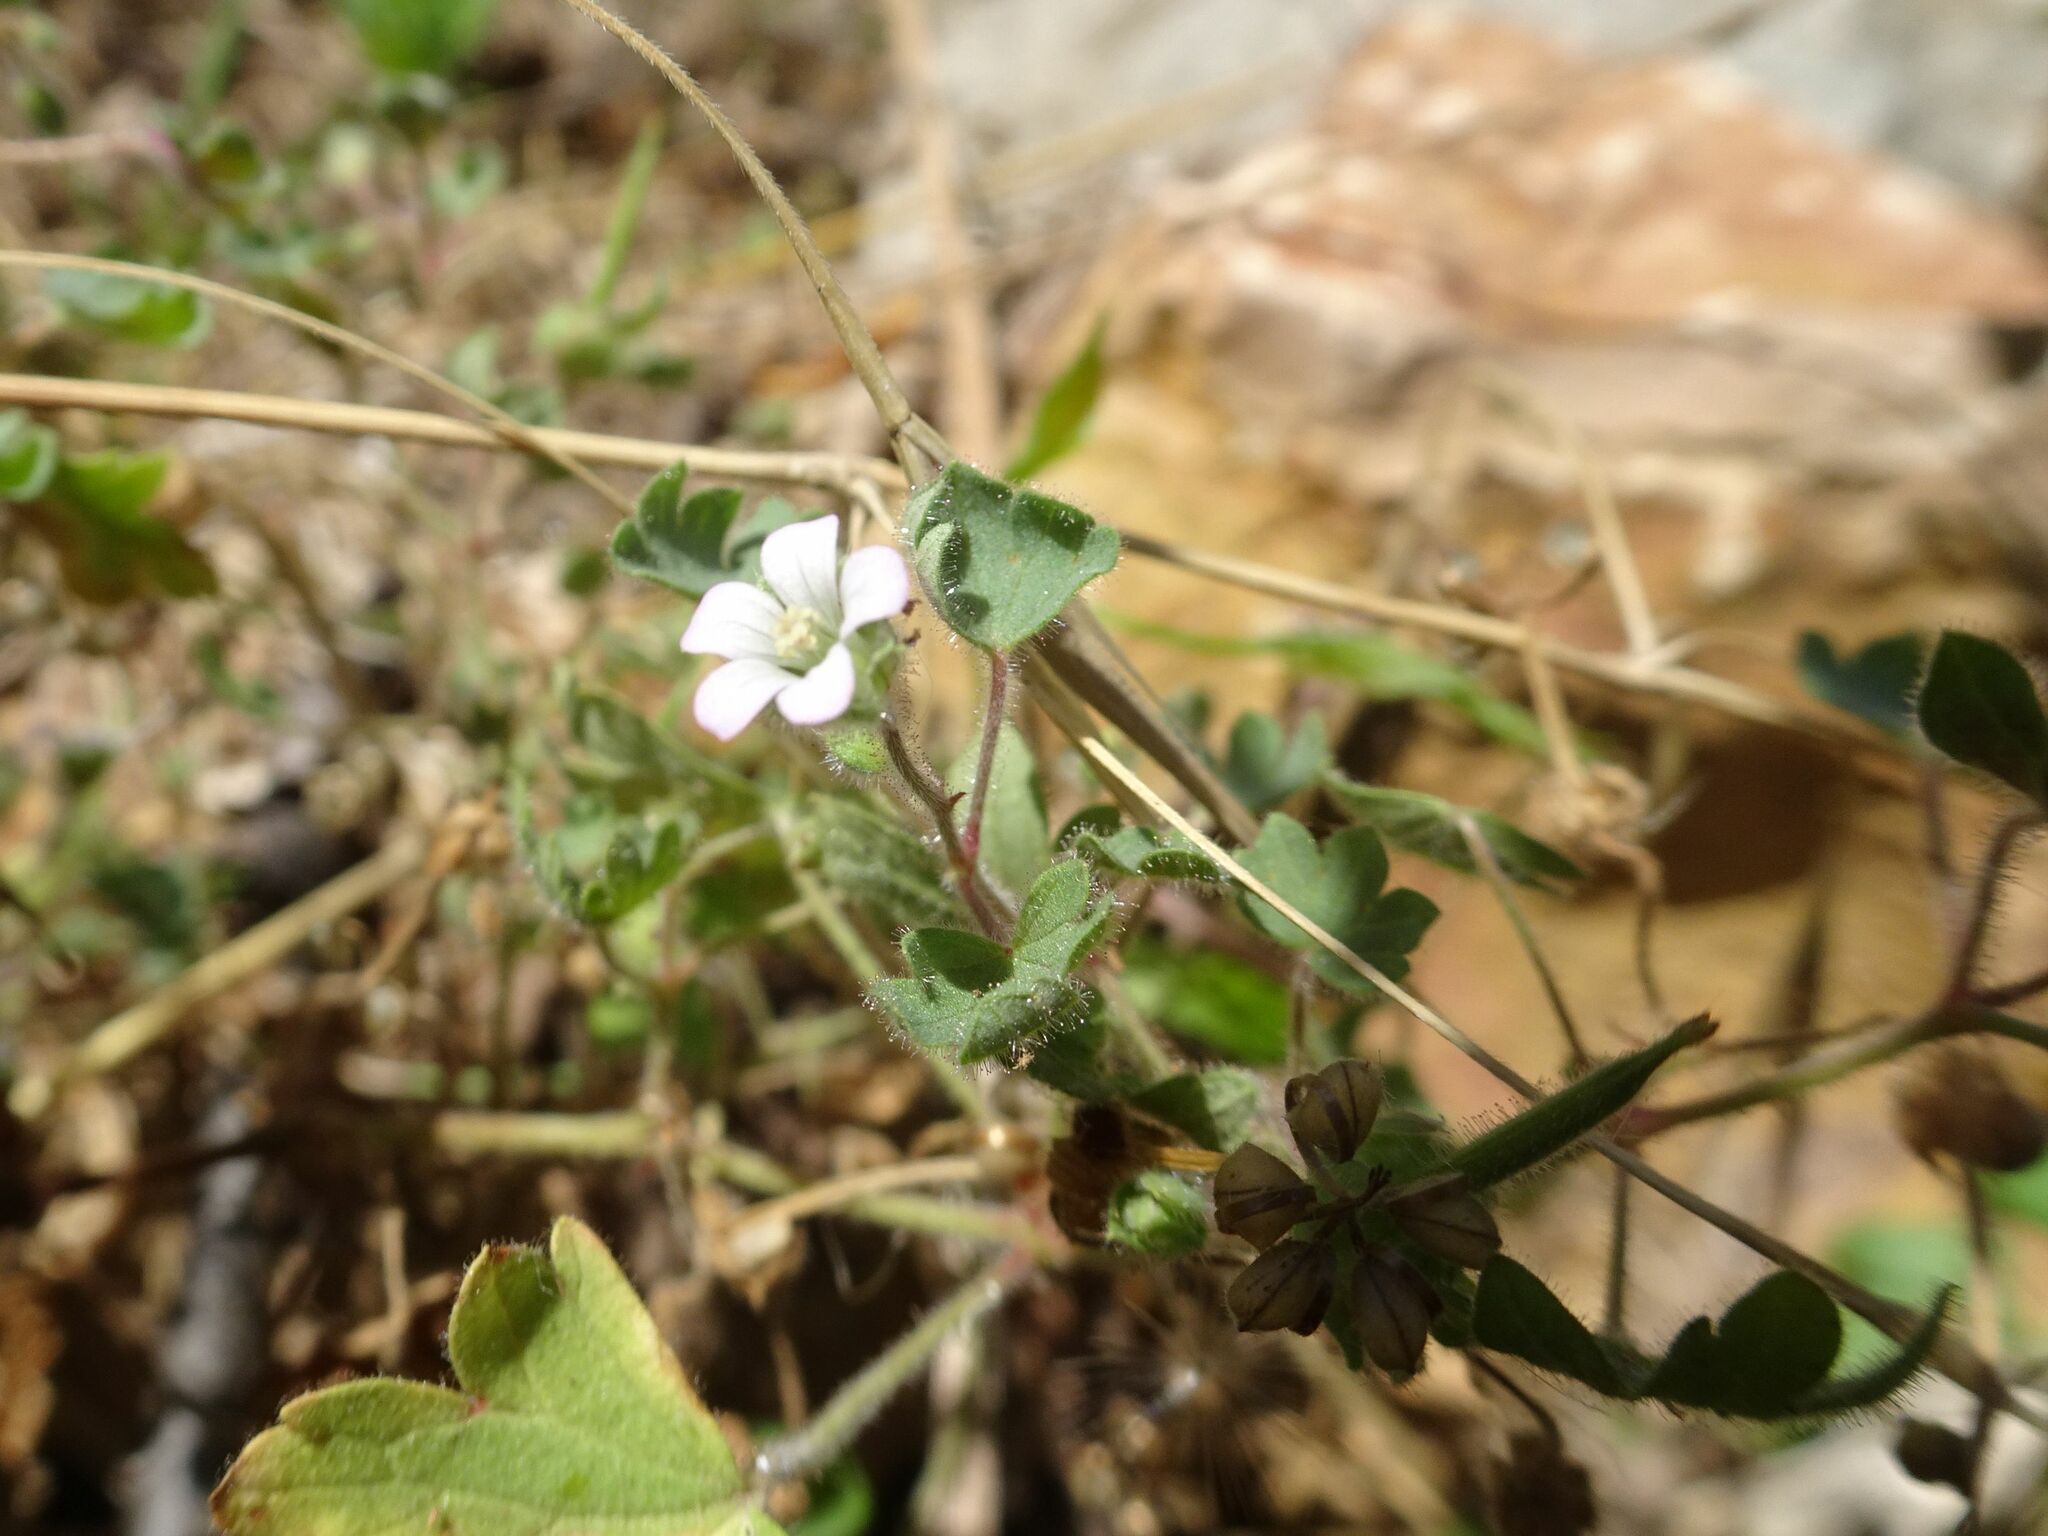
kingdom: Plantae
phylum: Tracheophyta
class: Magnoliopsida
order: Geraniales
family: Geraniaceae
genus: Geranium
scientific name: Geranium rotundifolium
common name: Round-leaved crane's-bill
